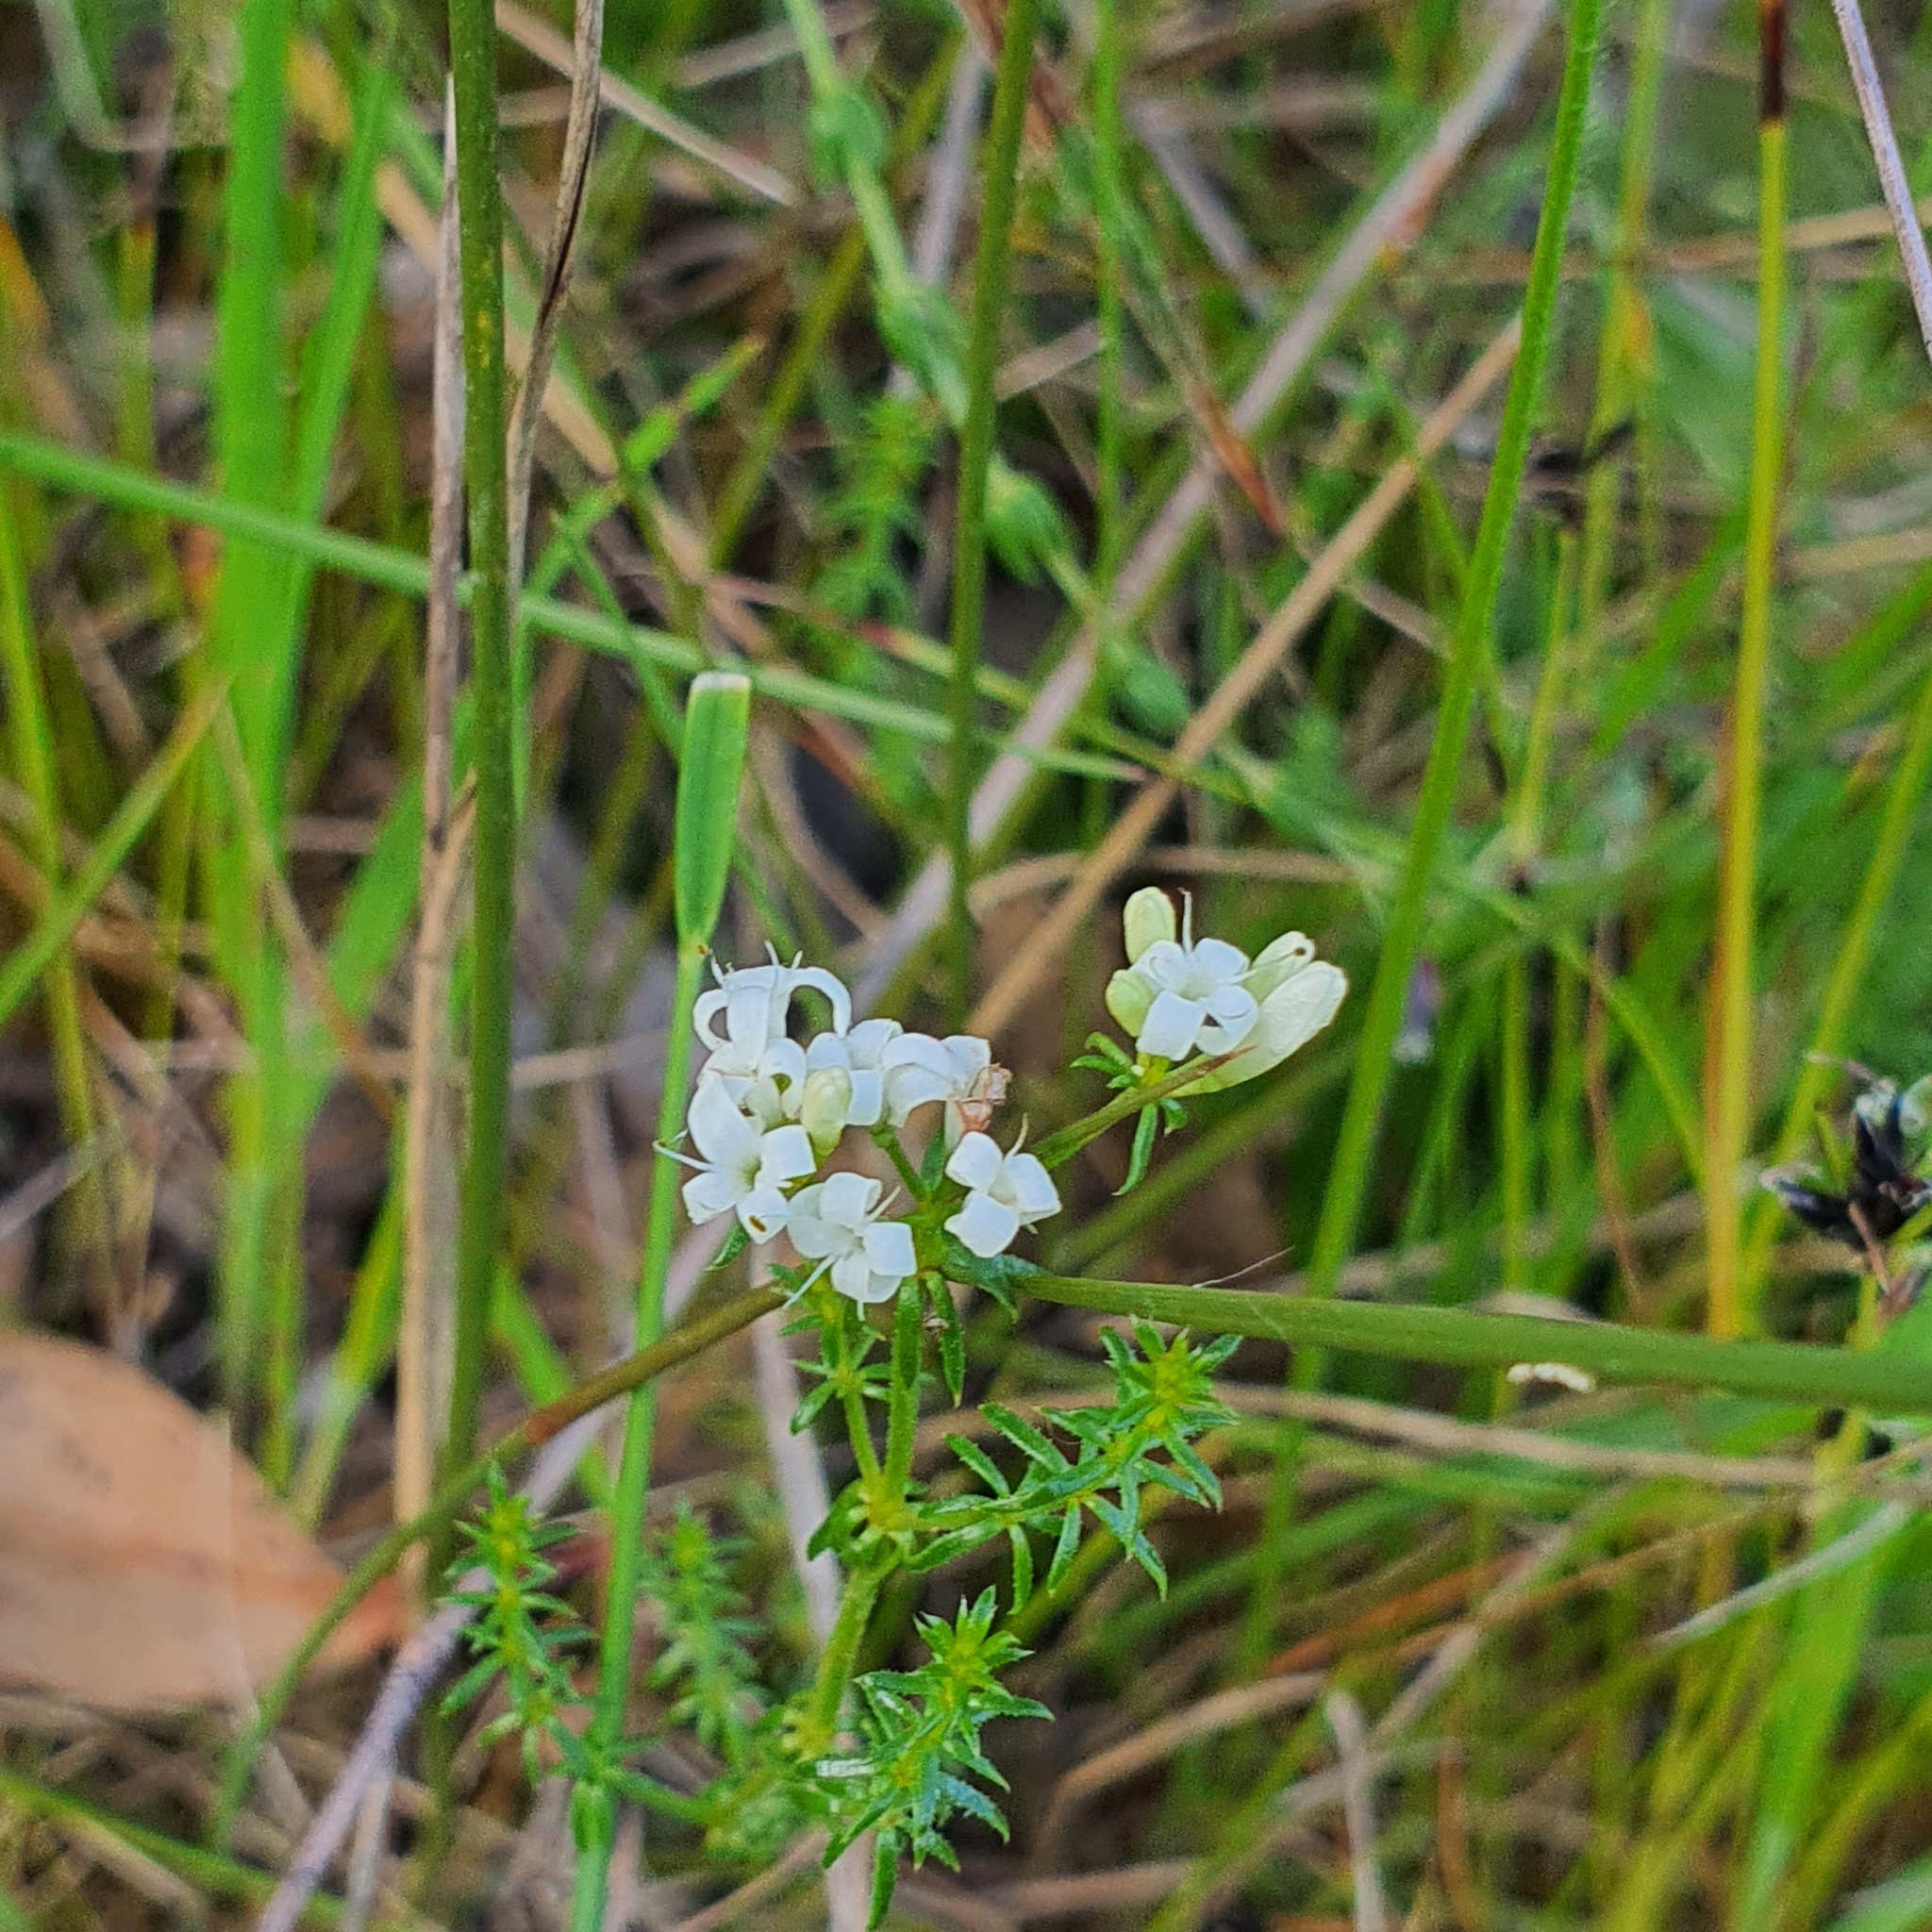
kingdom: Plantae
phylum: Tracheophyta
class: Magnoliopsida
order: Gentianales
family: Rubiaceae
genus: Asperula
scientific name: Asperula conferta
